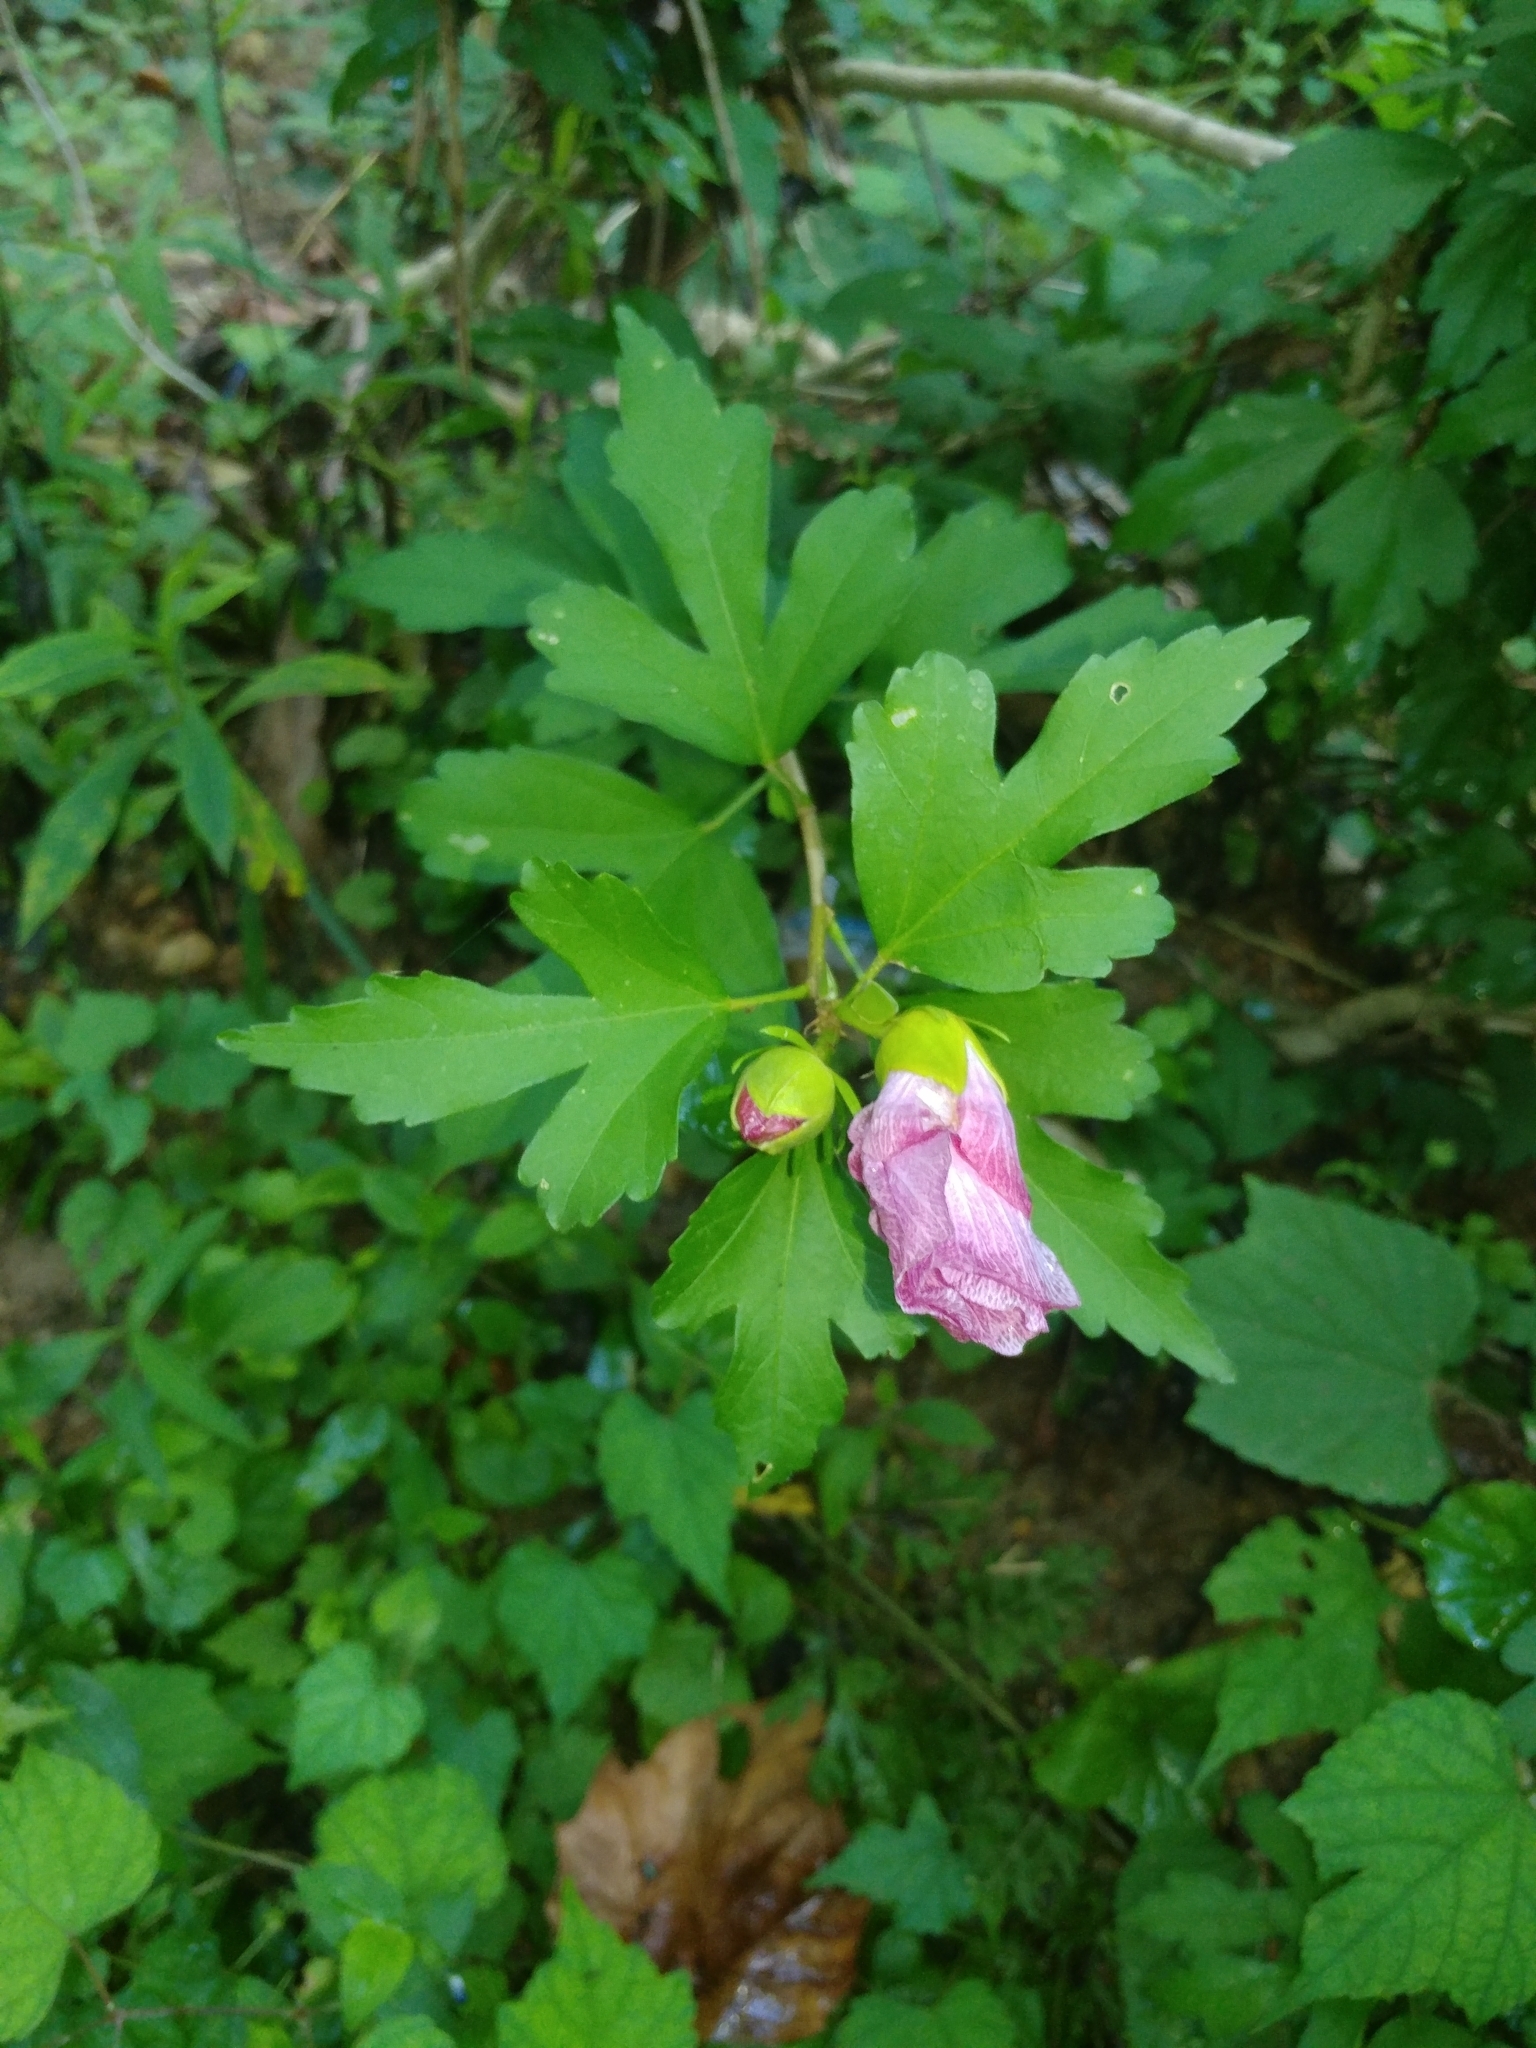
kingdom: Plantae
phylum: Tracheophyta
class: Magnoliopsida
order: Malvales
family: Malvaceae
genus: Hibiscus
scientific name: Hibiscus syriacus
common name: Syrian ketmia
